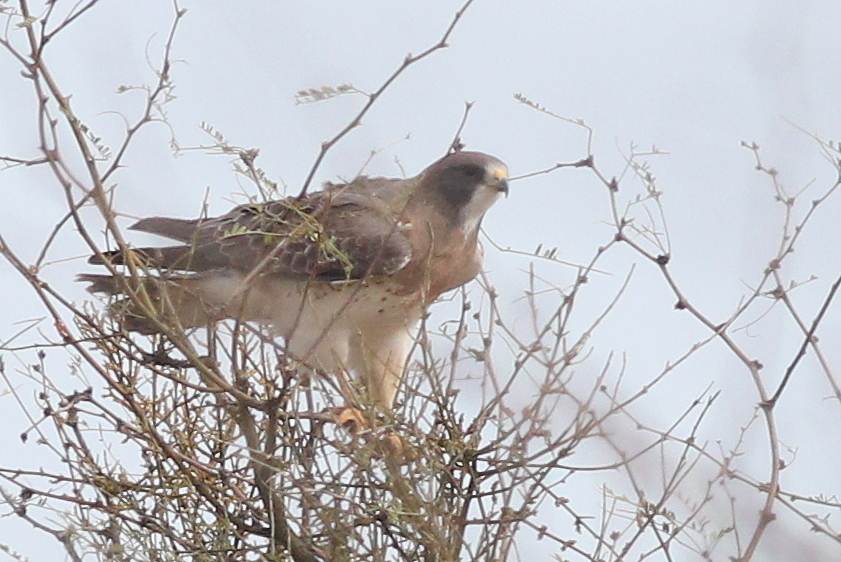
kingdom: Animalia
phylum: Chordata
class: Aves
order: Accipitriformes
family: Accipitridae
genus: Buteo
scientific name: Buteo swainsoni
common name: Swainson's hawk
